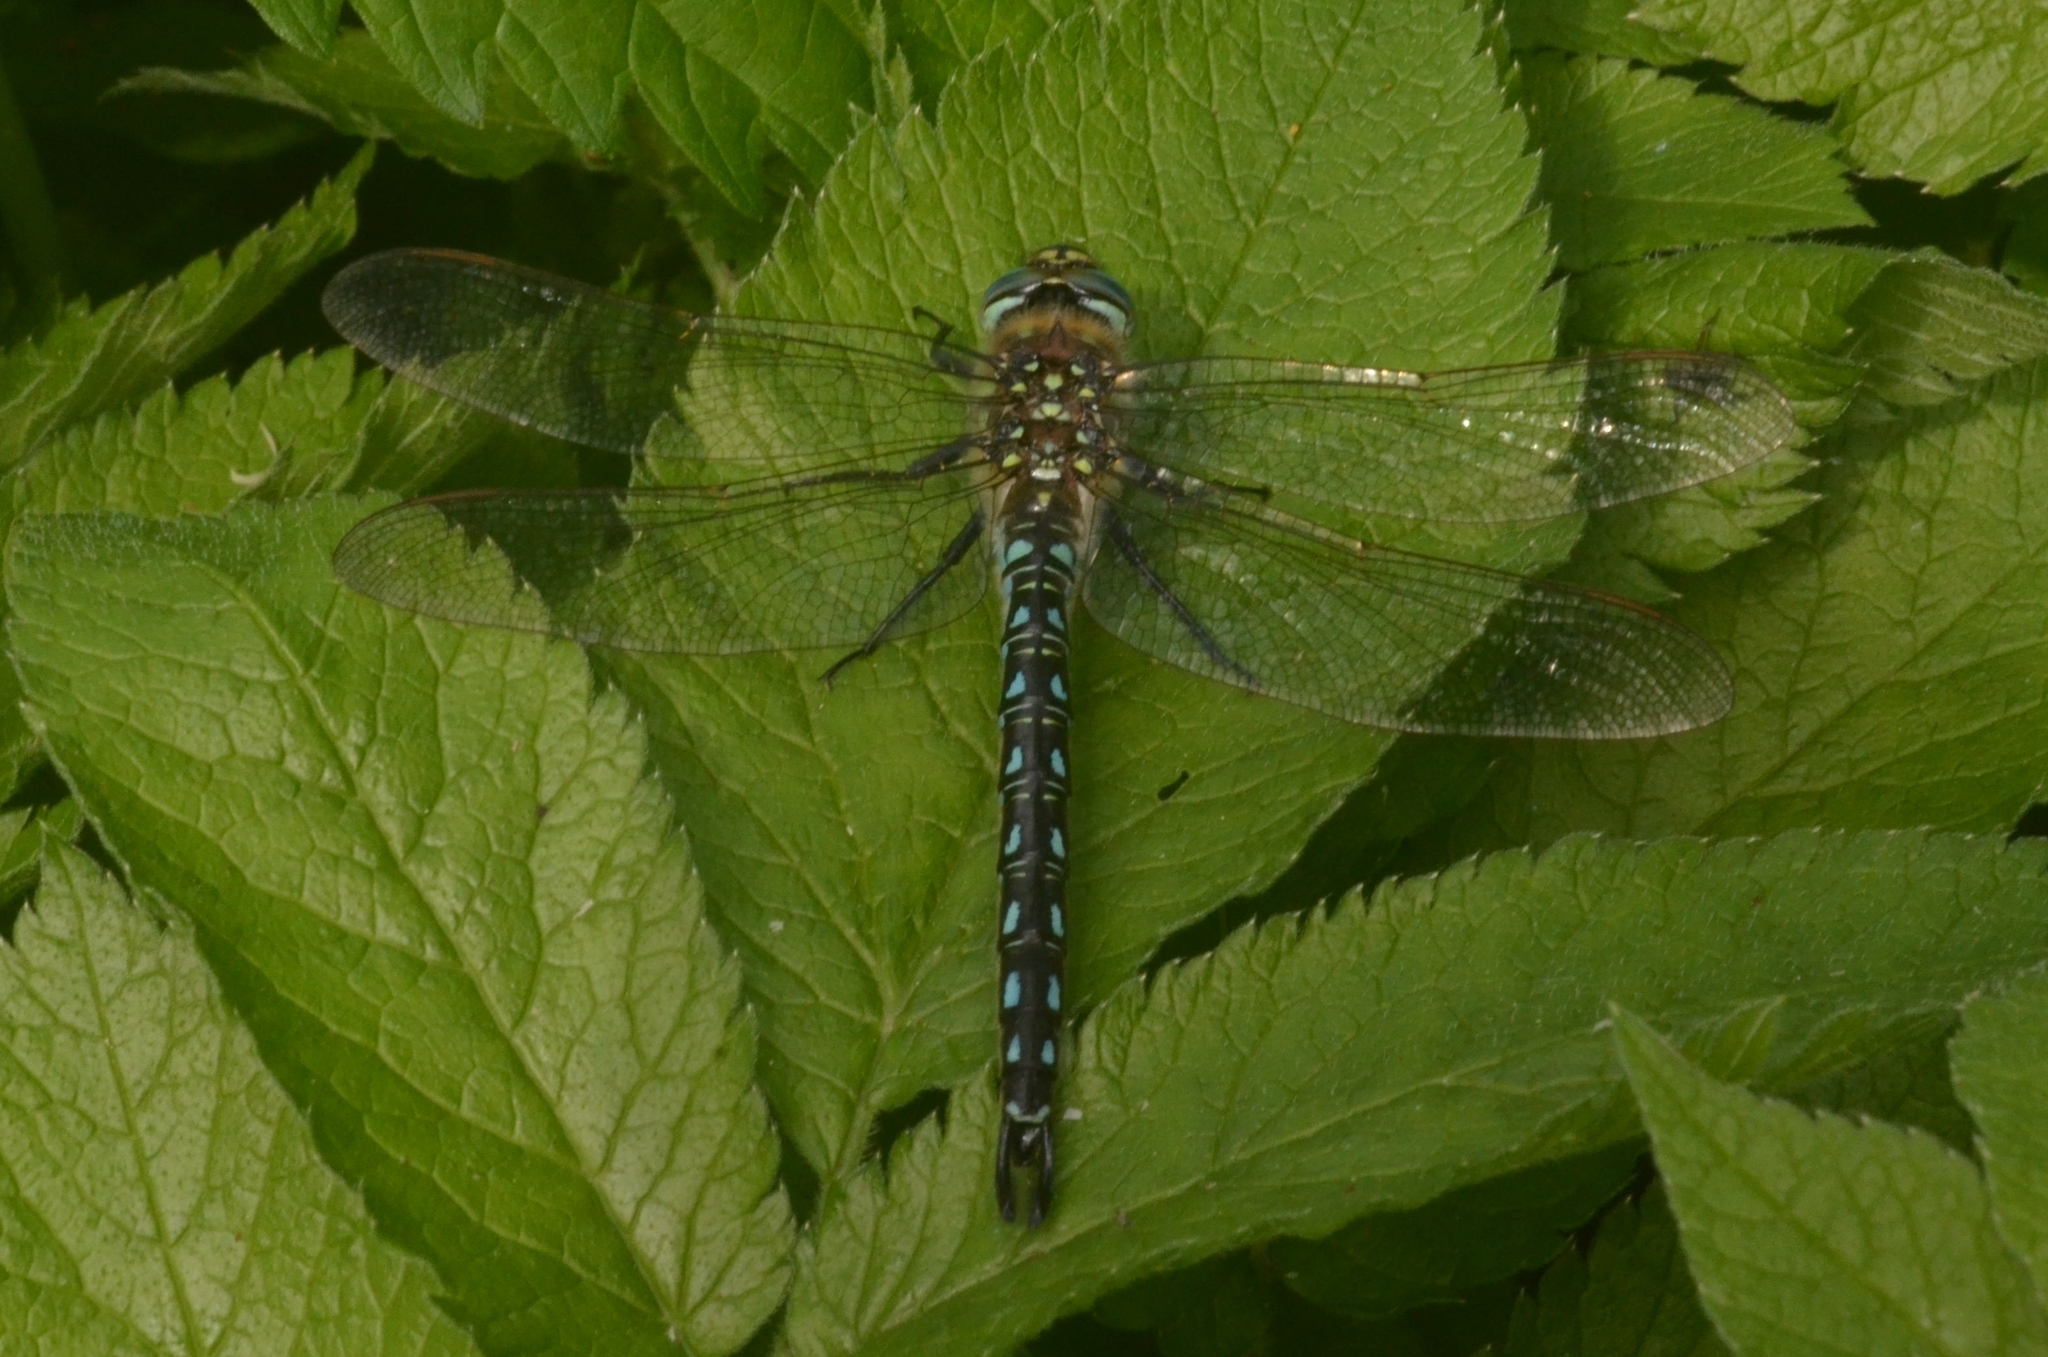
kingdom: Animalia
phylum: Arthropoda
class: Insecta
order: Odonata
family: Aeshnidae
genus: Brachytron
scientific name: Brachytron pratense
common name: Hairy hawker
